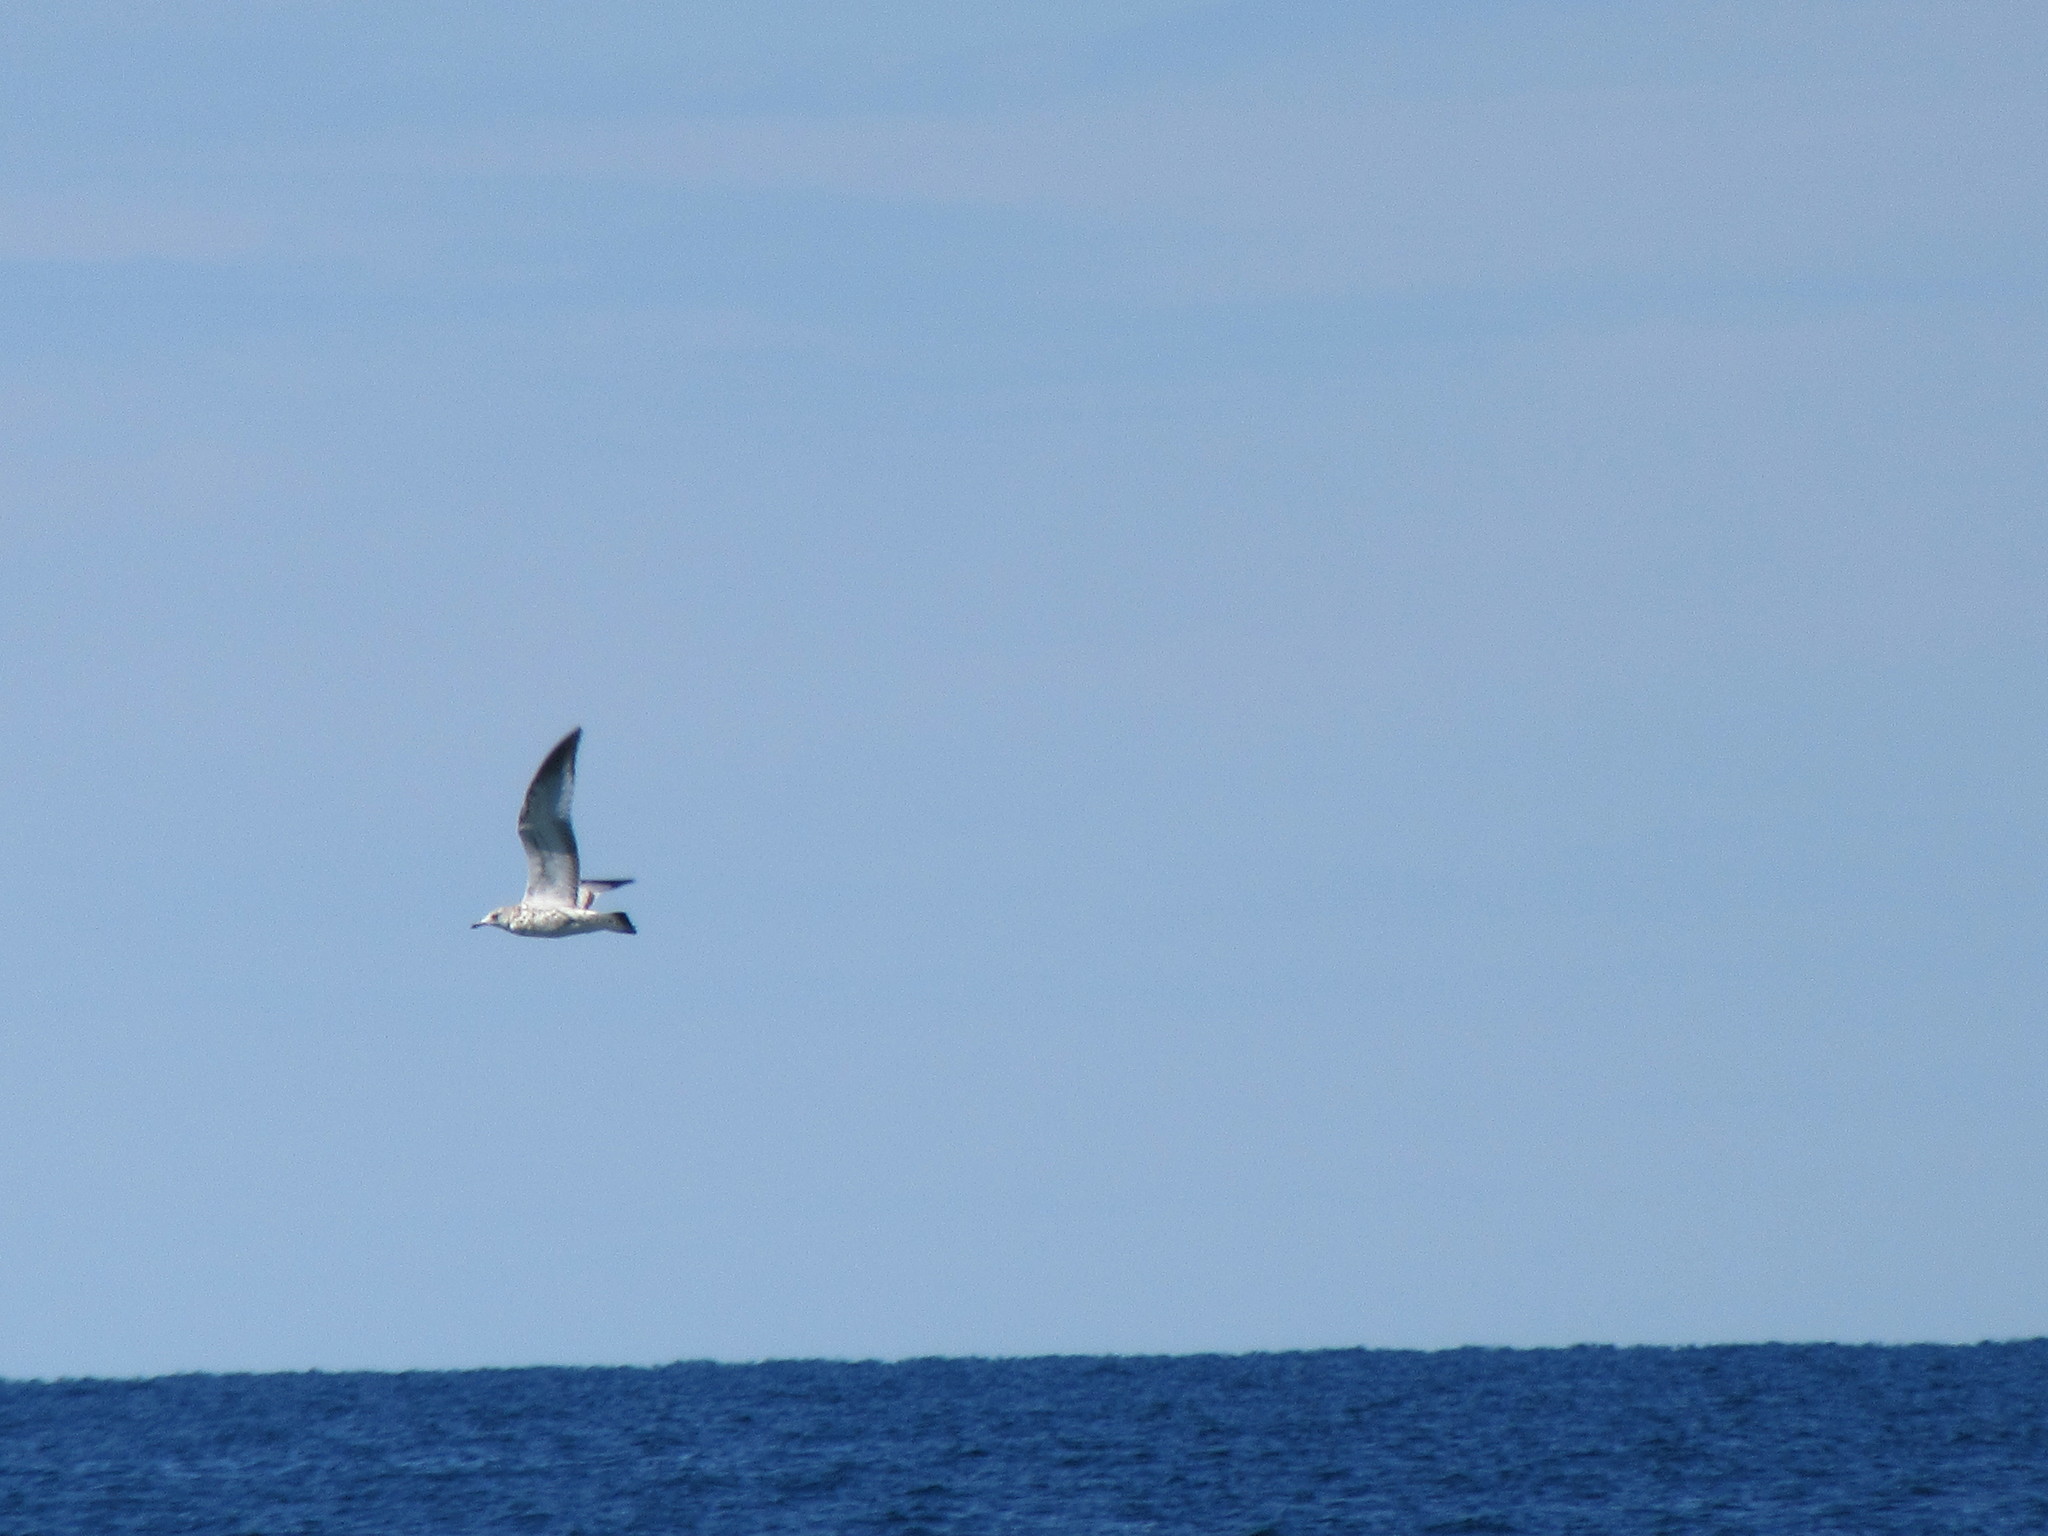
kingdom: Animalia
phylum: Chordata
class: Aves
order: Charadriiformes
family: Laridae
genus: Larus
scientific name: Larus delawarensis
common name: Ring-billed gull
